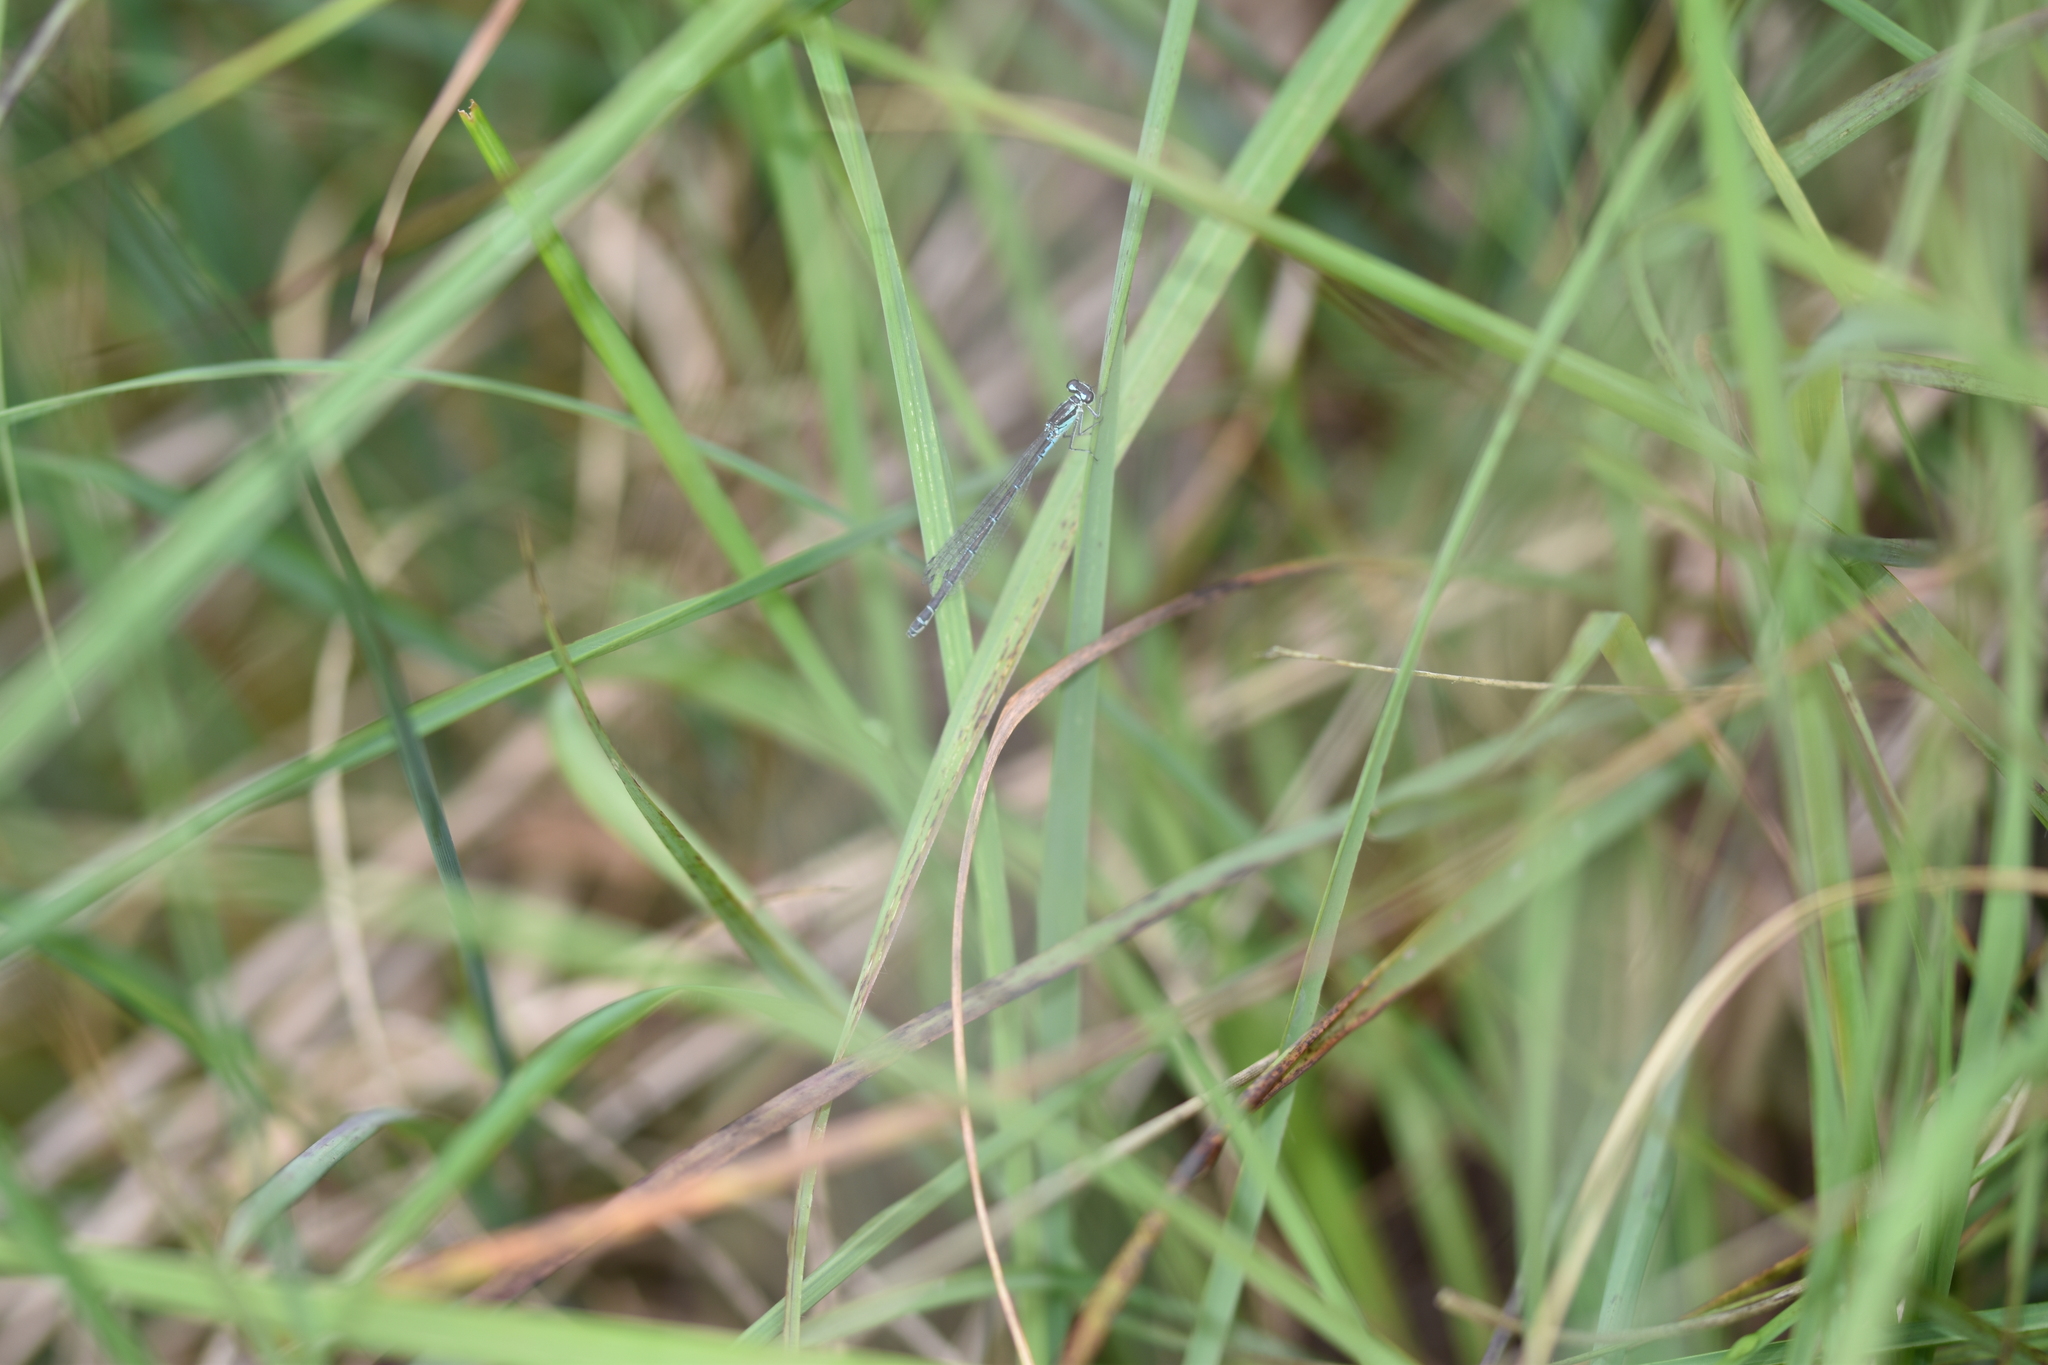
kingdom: Animalia
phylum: Arthropoda
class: Insecta
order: Odonata
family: Coenagrionidae
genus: Coenagrion
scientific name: Coenagrion puella
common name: Azure damselfly
